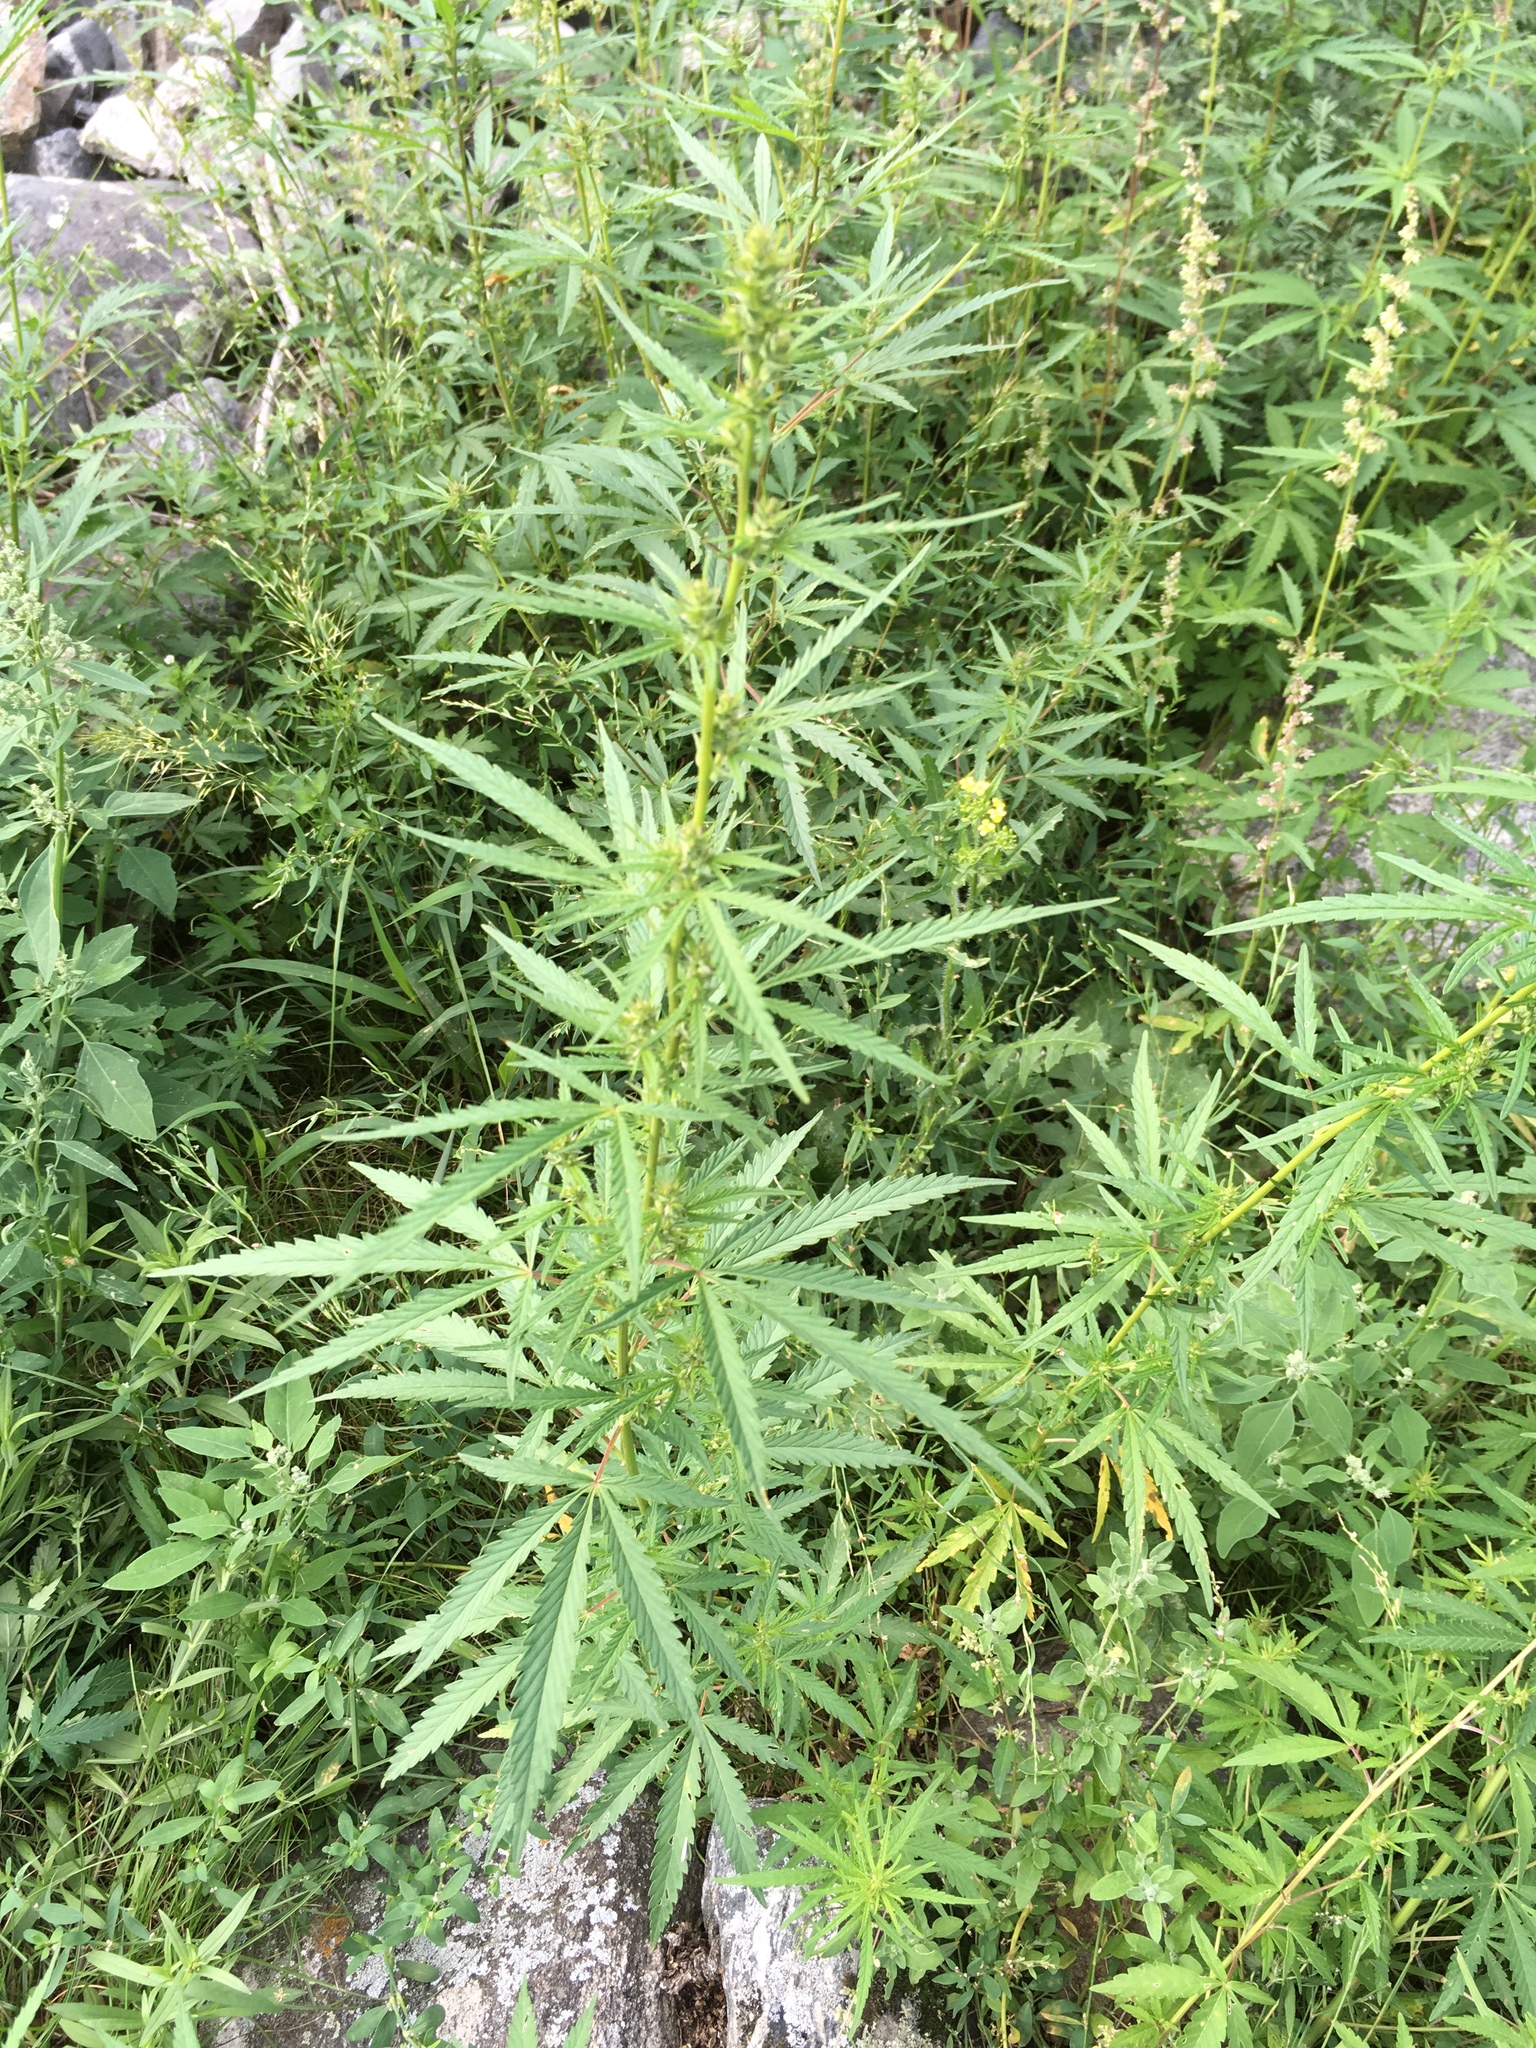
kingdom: Plantae
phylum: Tracheophyta
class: Magnoliopsida
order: Rosales
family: Cannabaceae
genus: Cannabis
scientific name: Cannabis sativa
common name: Hemp
